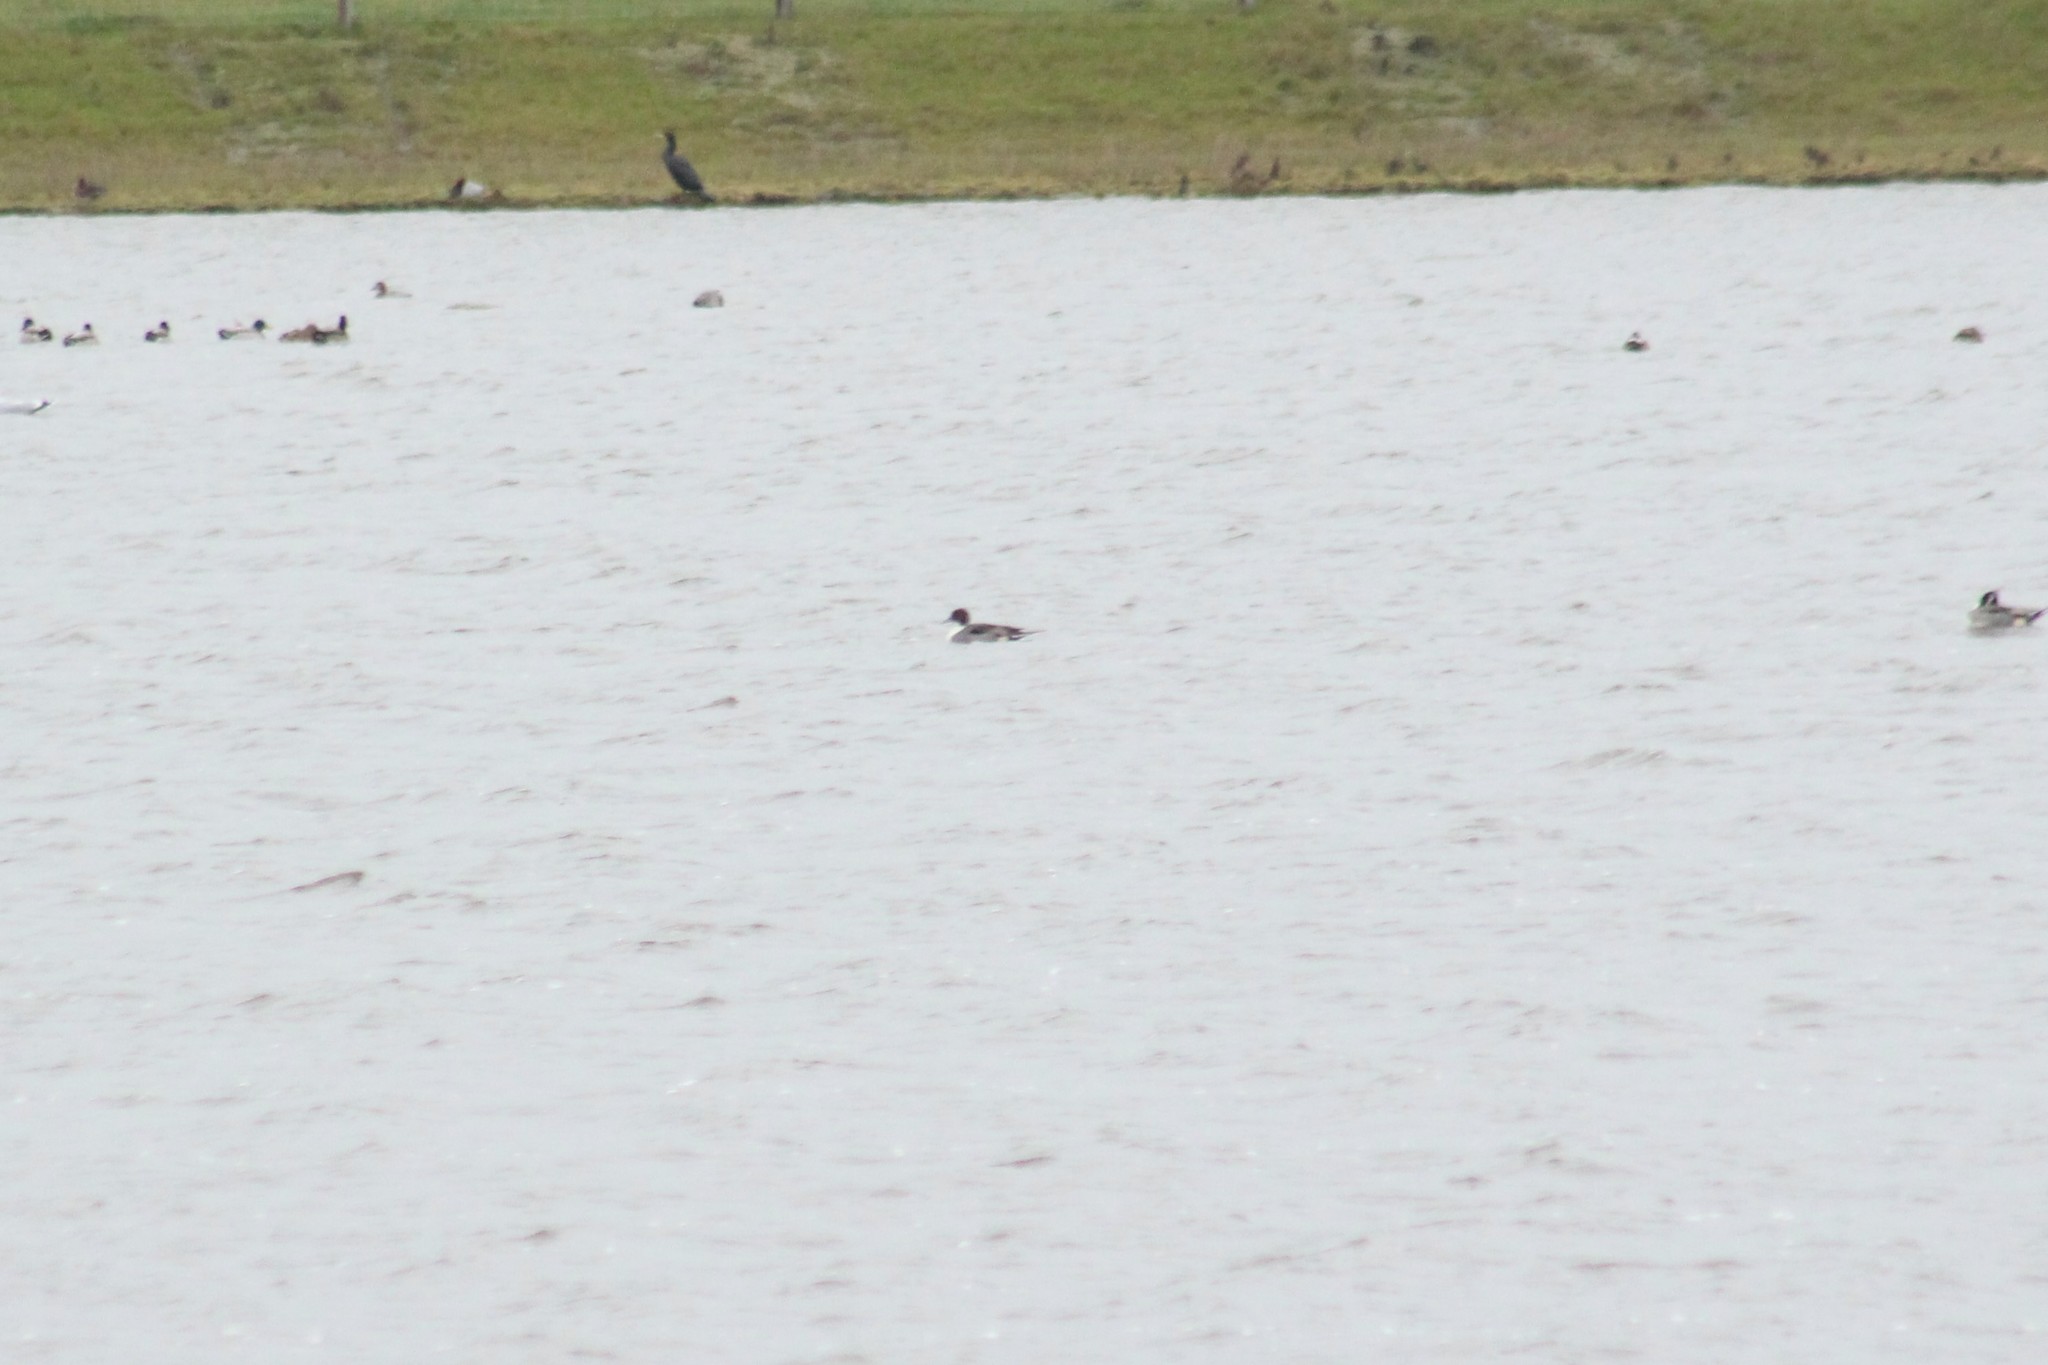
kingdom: Animalia
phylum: Chordata
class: Aves
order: Anseriformes
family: Anatidae
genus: Anas
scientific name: Anas acuta
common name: Northern pintail
